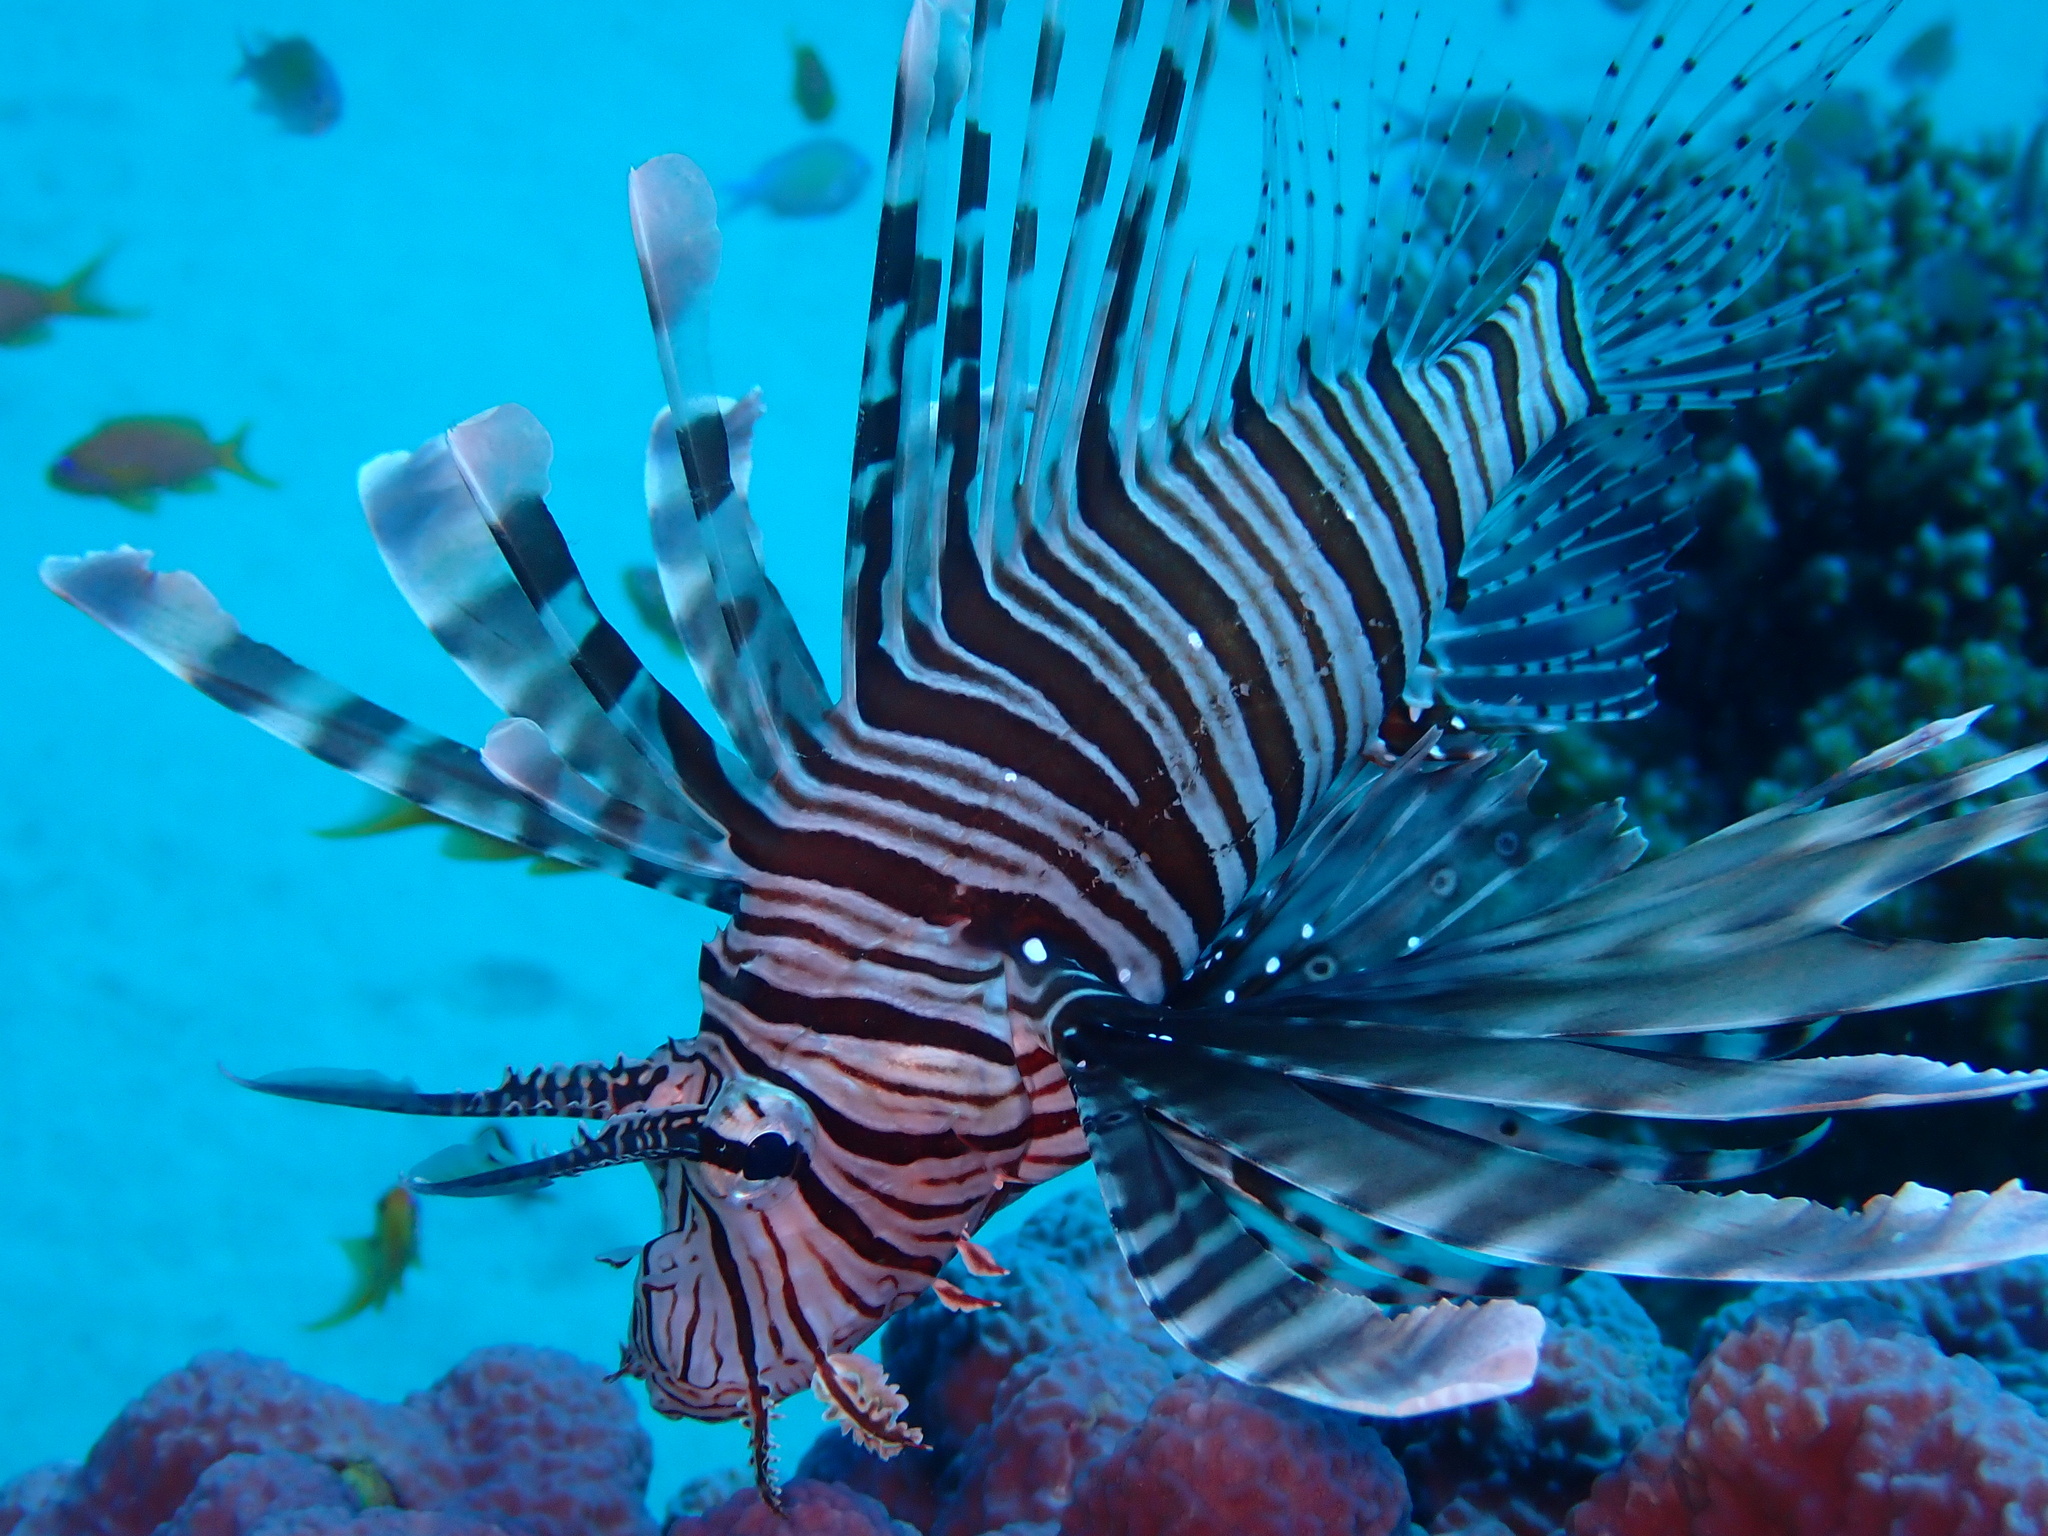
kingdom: Animalia
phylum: Chordata
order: Scorpaeniformes
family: Scorpaenidae
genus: Pterois
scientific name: Pterois miles
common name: Devil firefish
